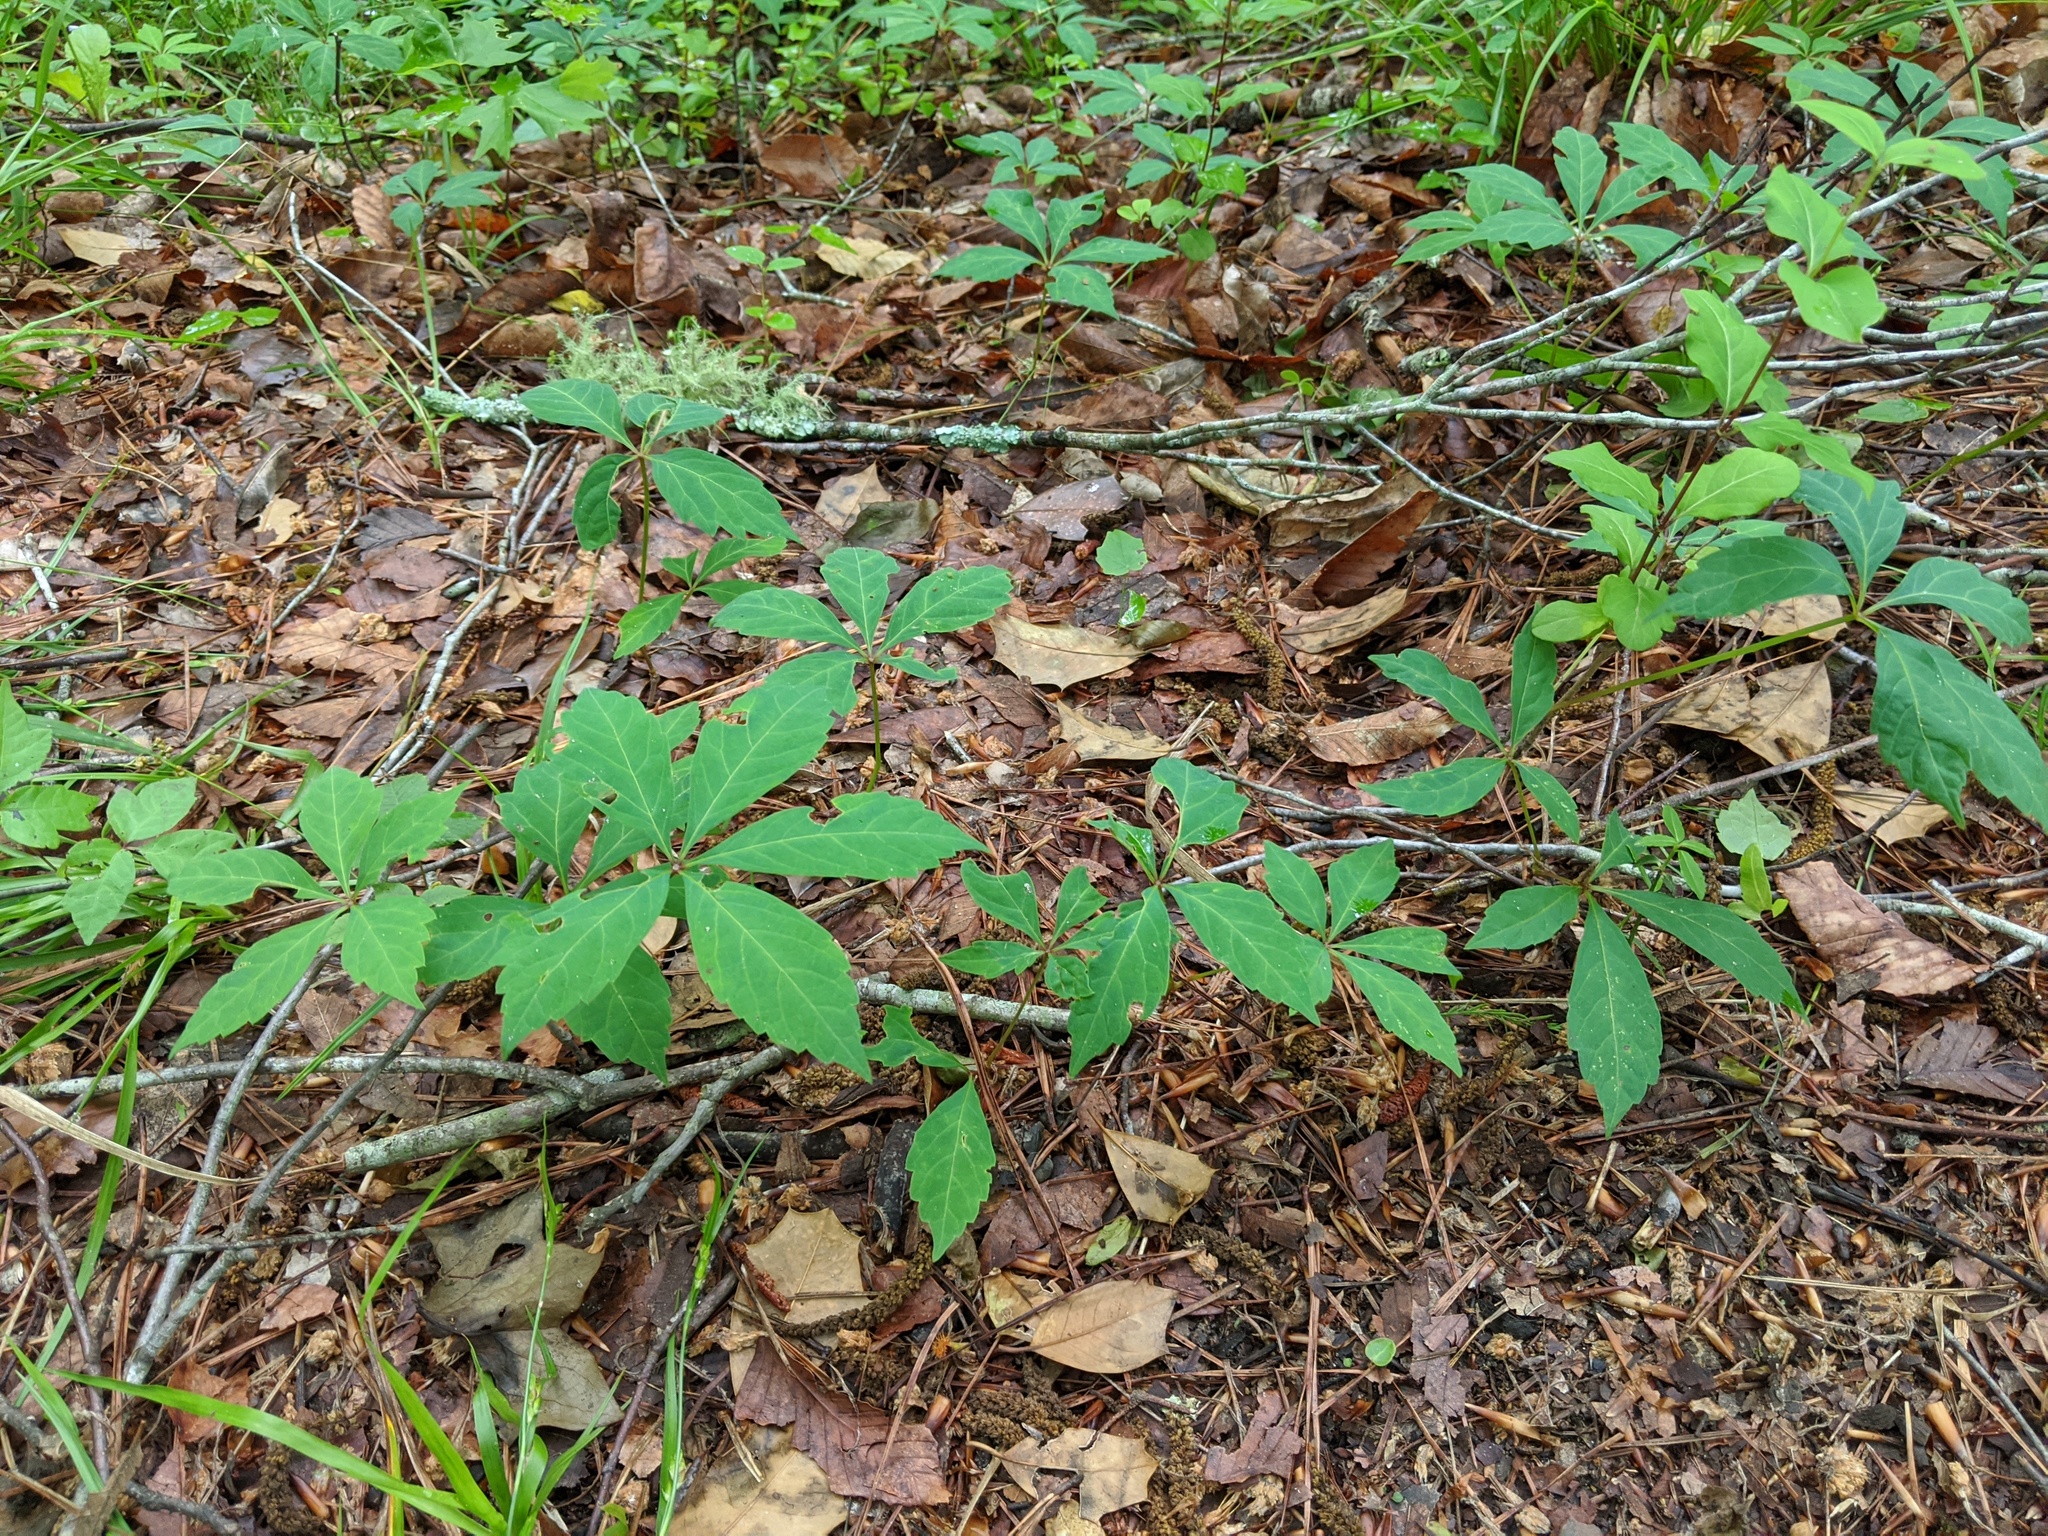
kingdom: Plantae
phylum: Tracheophyta
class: Magnoliopsida
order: Vitales
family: Vitaceae
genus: Parthenocissus
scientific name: Parthenocissus quinquefolia
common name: Virginia-creeper
